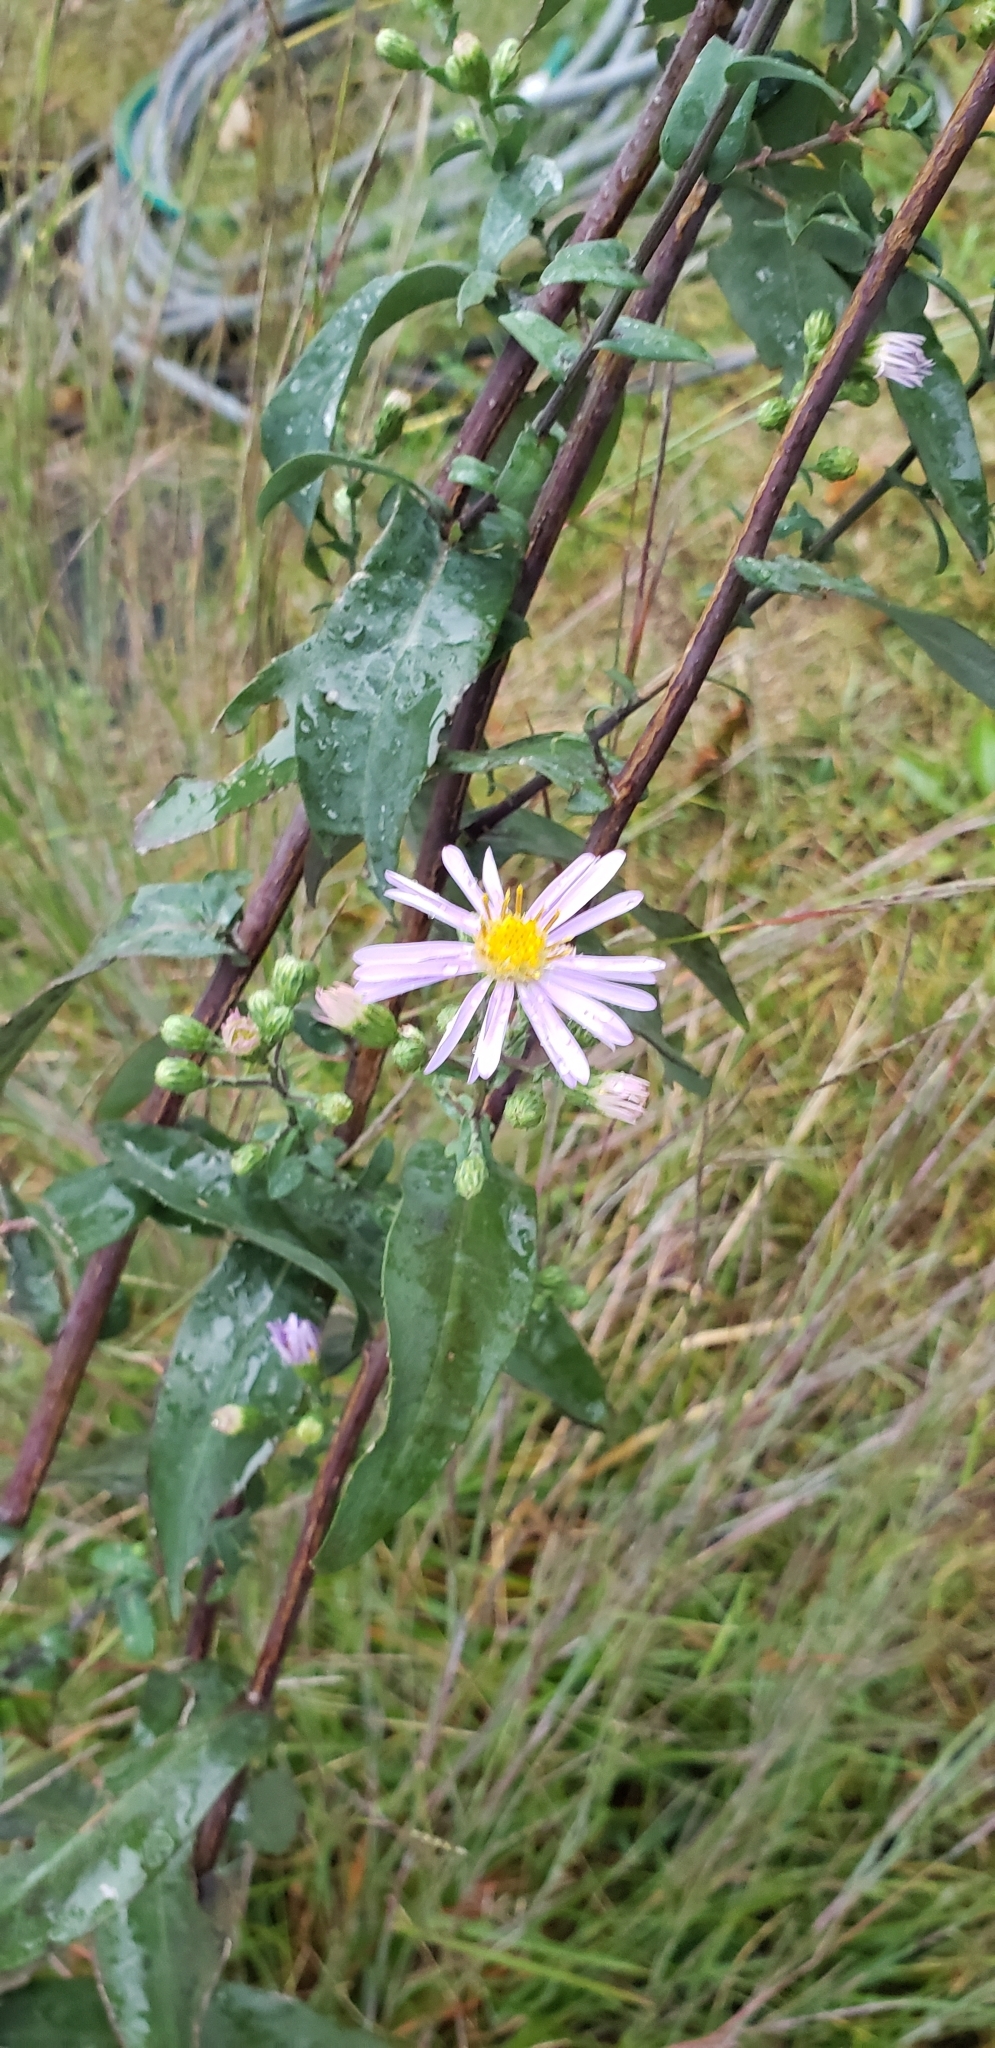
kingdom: Plantae
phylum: Tracheophyta
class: Magnoliopsida
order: Asterales
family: Asteraceae
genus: Symphyotrichum
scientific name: Symphyotrichum laeve
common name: Glaucous aster
